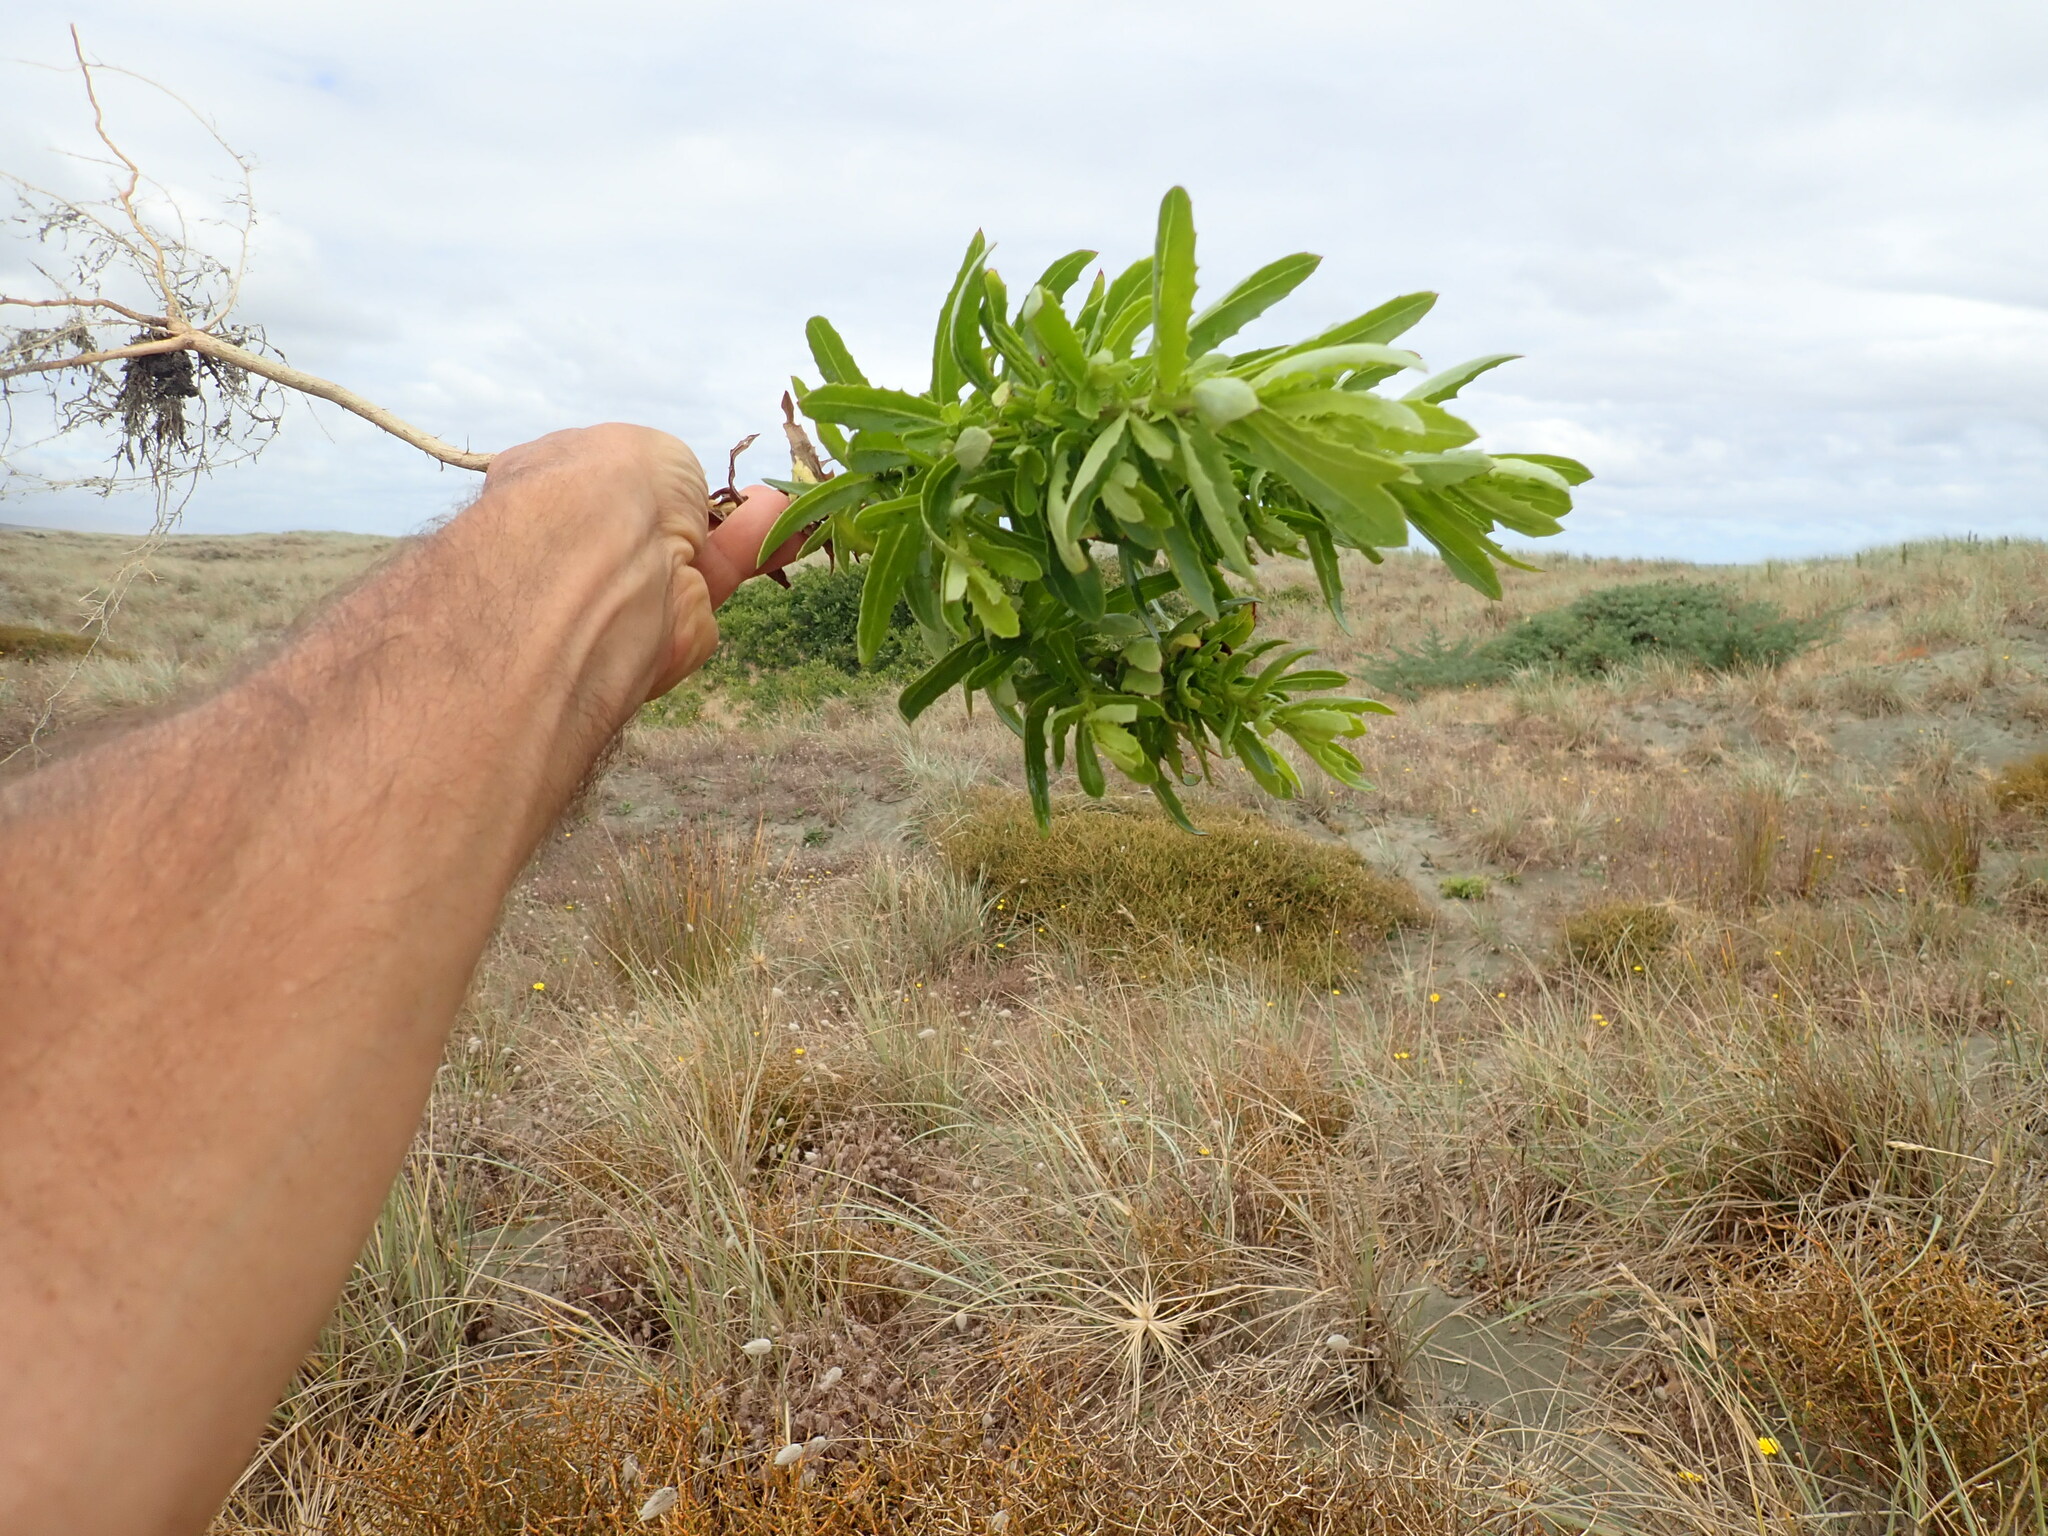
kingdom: Plantae
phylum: Tracheophyta
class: Magnoliopsida
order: Asterales
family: Asteraceae
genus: Senecio
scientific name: Senecio glastifolius
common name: Woad-leaved ragwort
